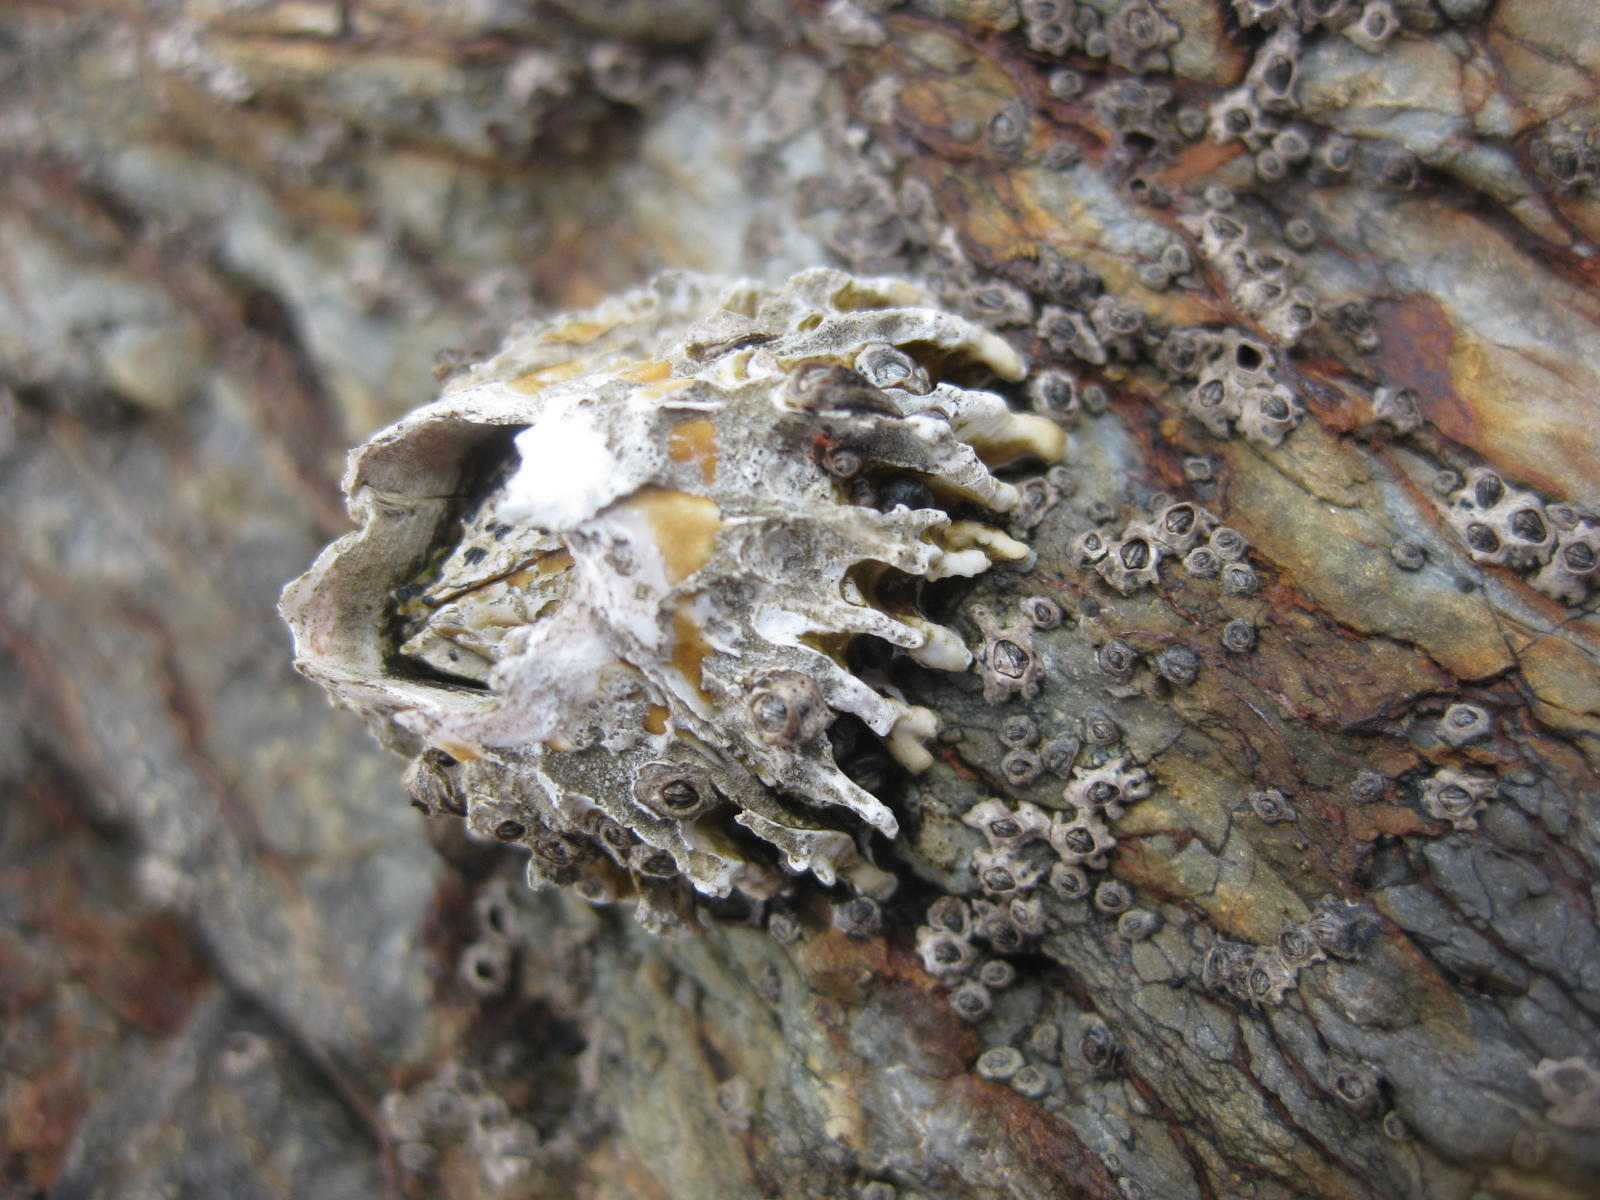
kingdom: Animalia
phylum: Arthropoda
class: Maxillopoda
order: Sessilia
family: Tetraclitidae
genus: Epopella
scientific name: Epopella plicata
